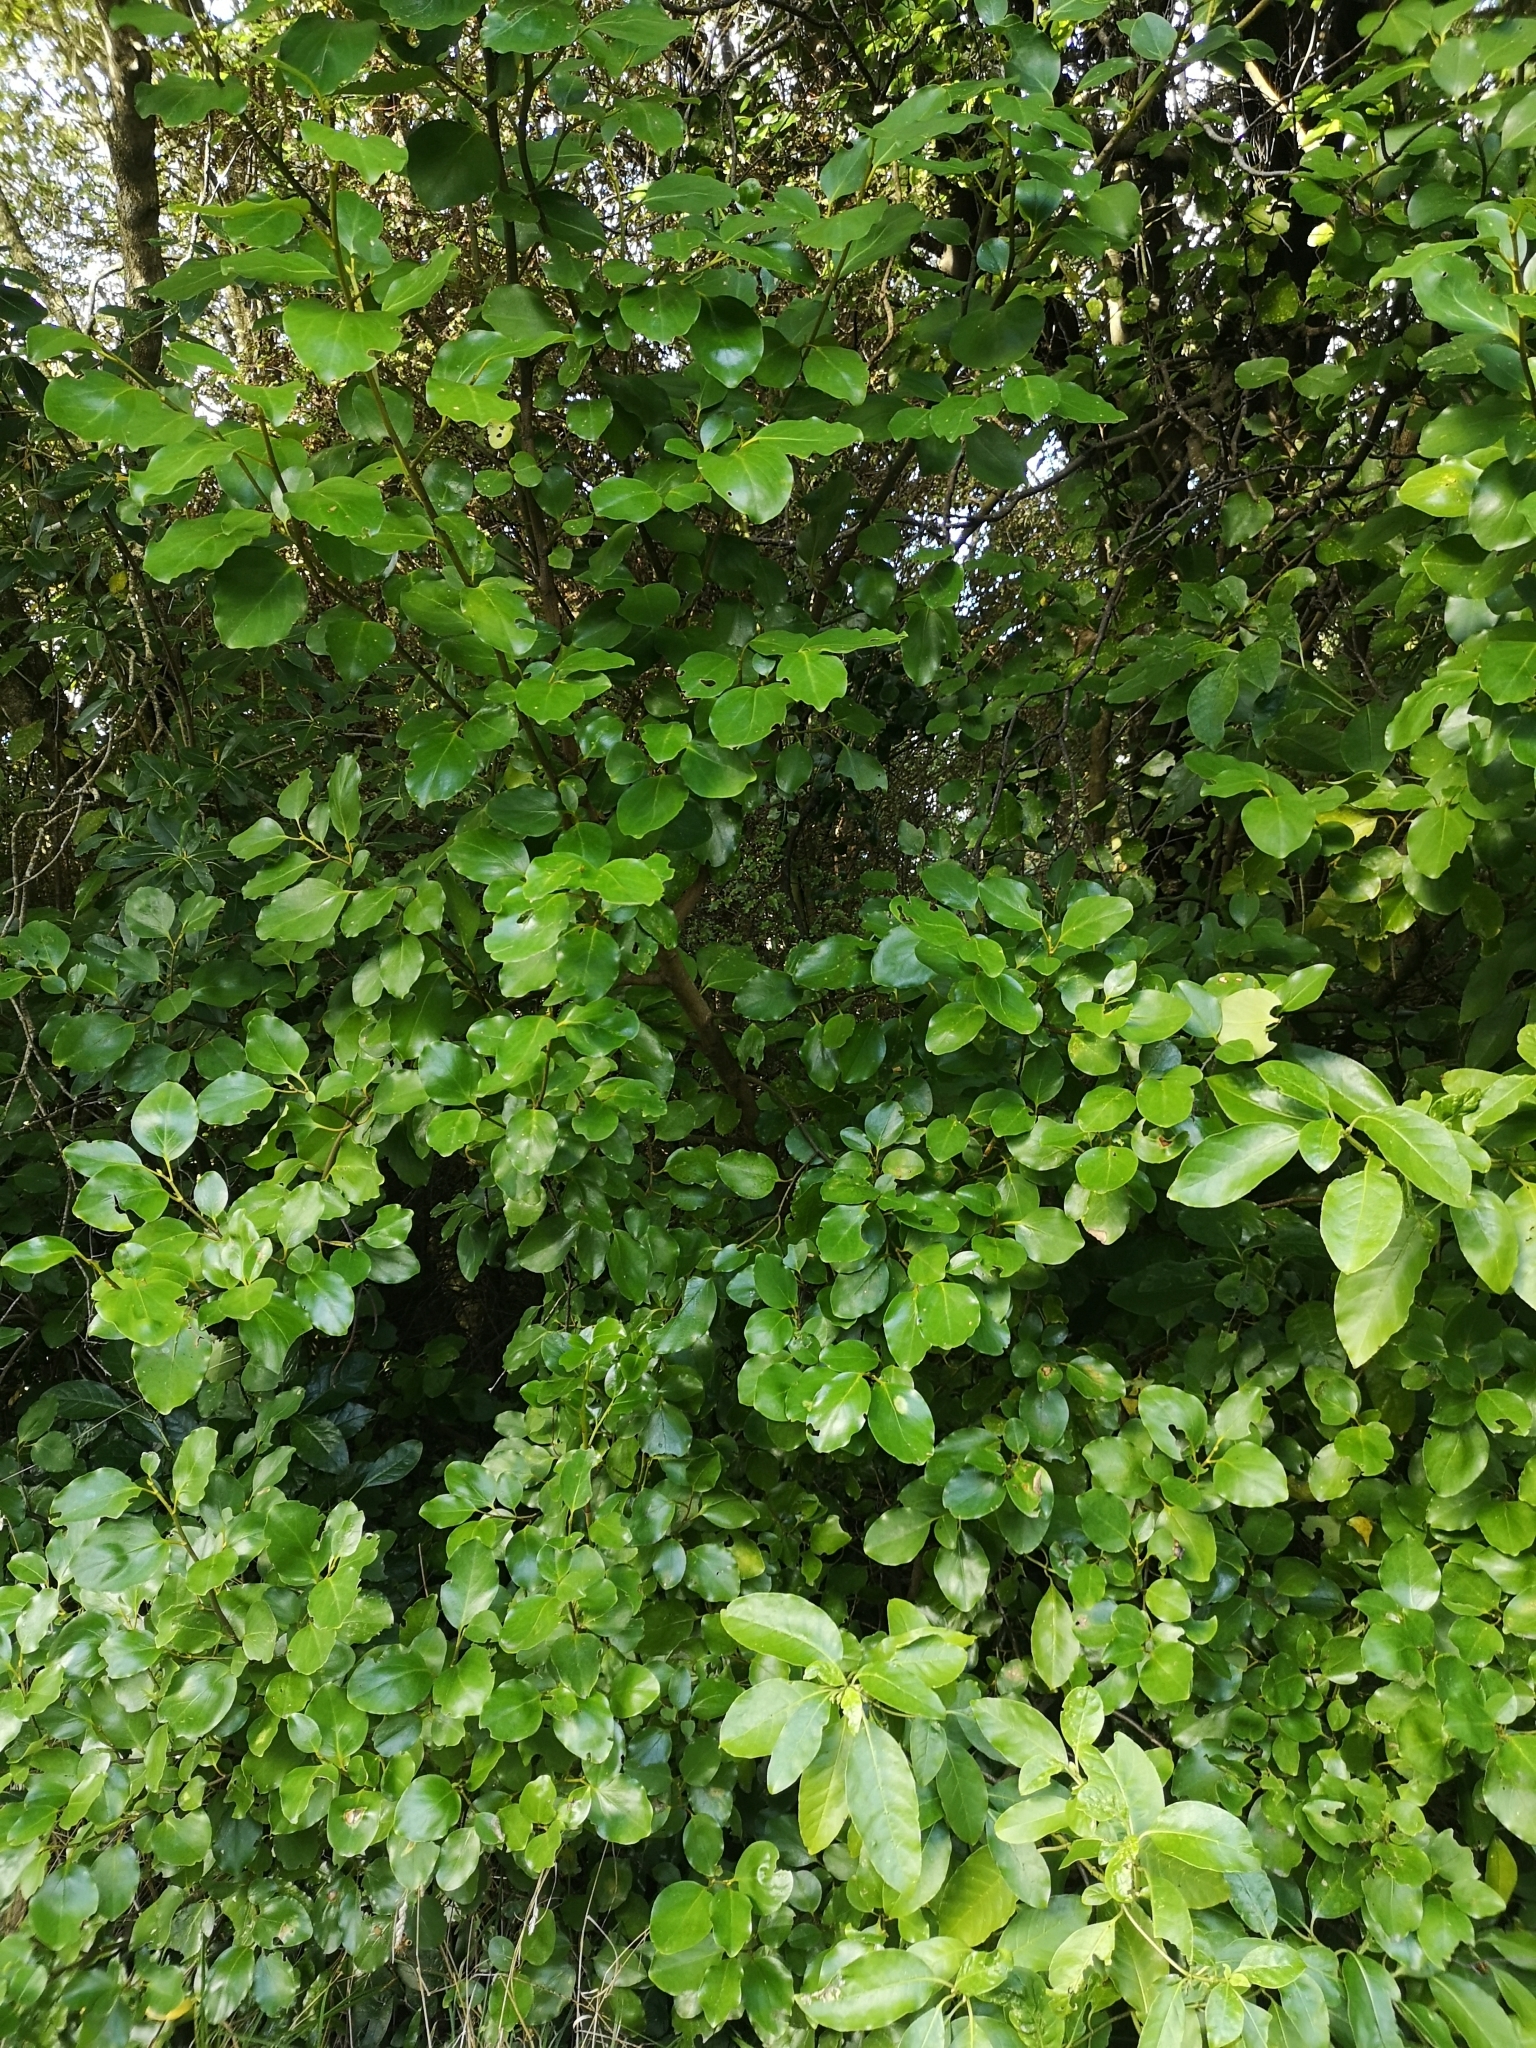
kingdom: Plantae
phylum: Tracheophyta
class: Magnoliopsida
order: Apiales
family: Griseliniaceae
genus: Griselinia
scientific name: Griselinia littoralis
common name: New zealand broadleaf
